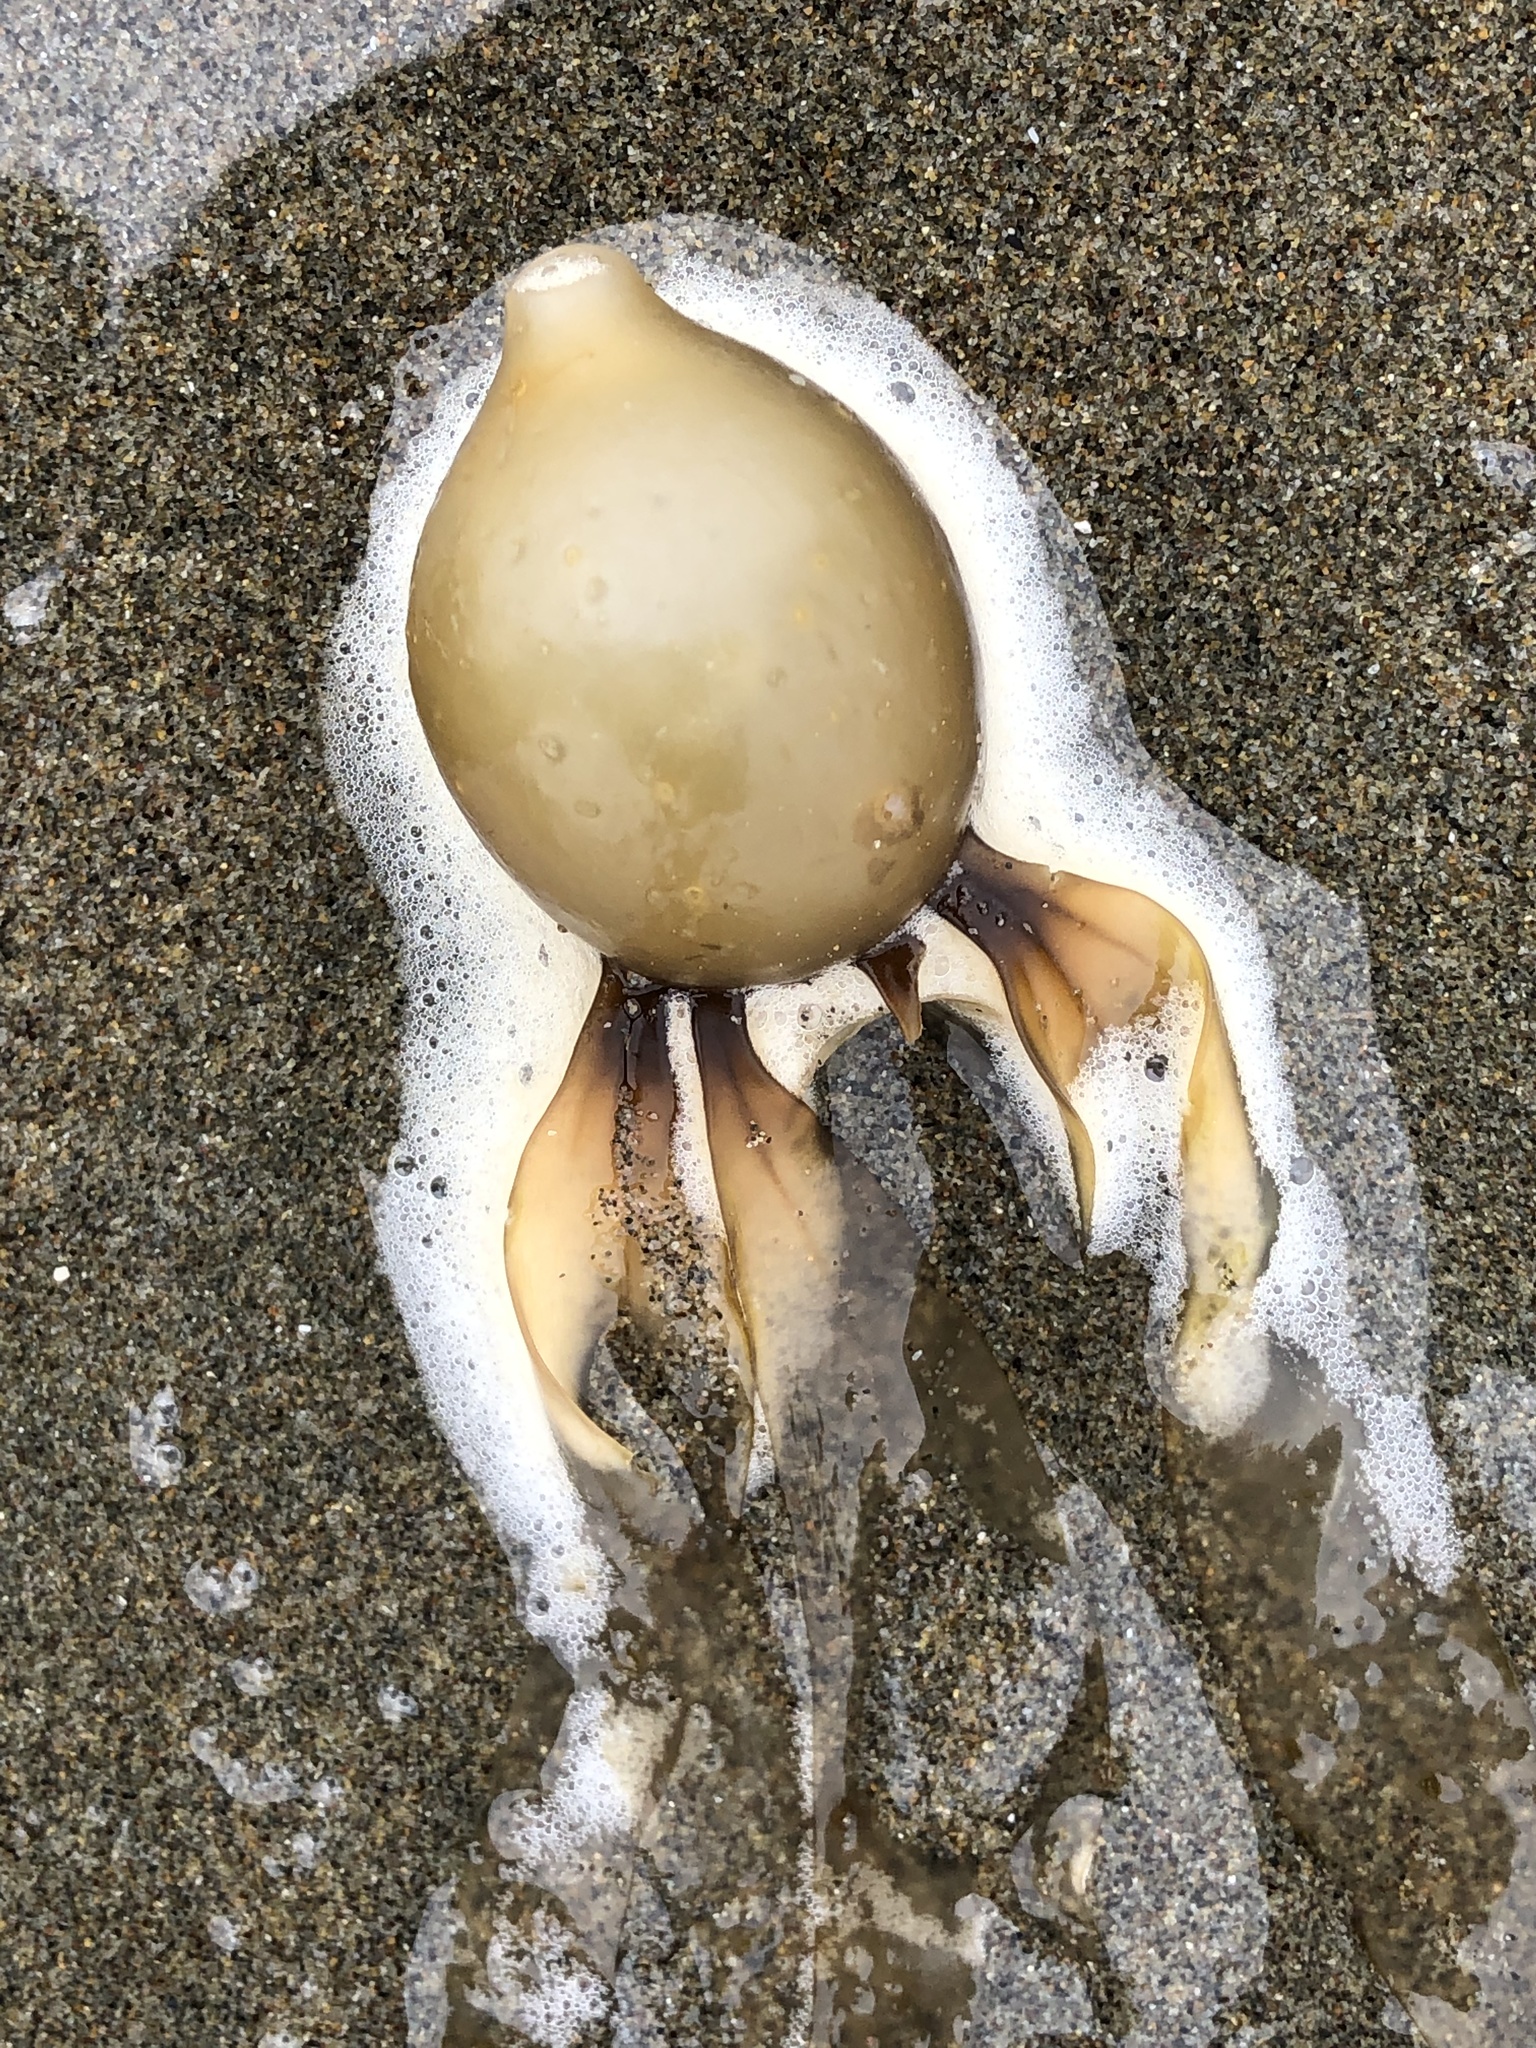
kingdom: Chromista
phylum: Ochrophyta
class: Phaeophyceae
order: Laminariales
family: Laminariaceae
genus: Nereocystis
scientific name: Nereocystis luetkeana
